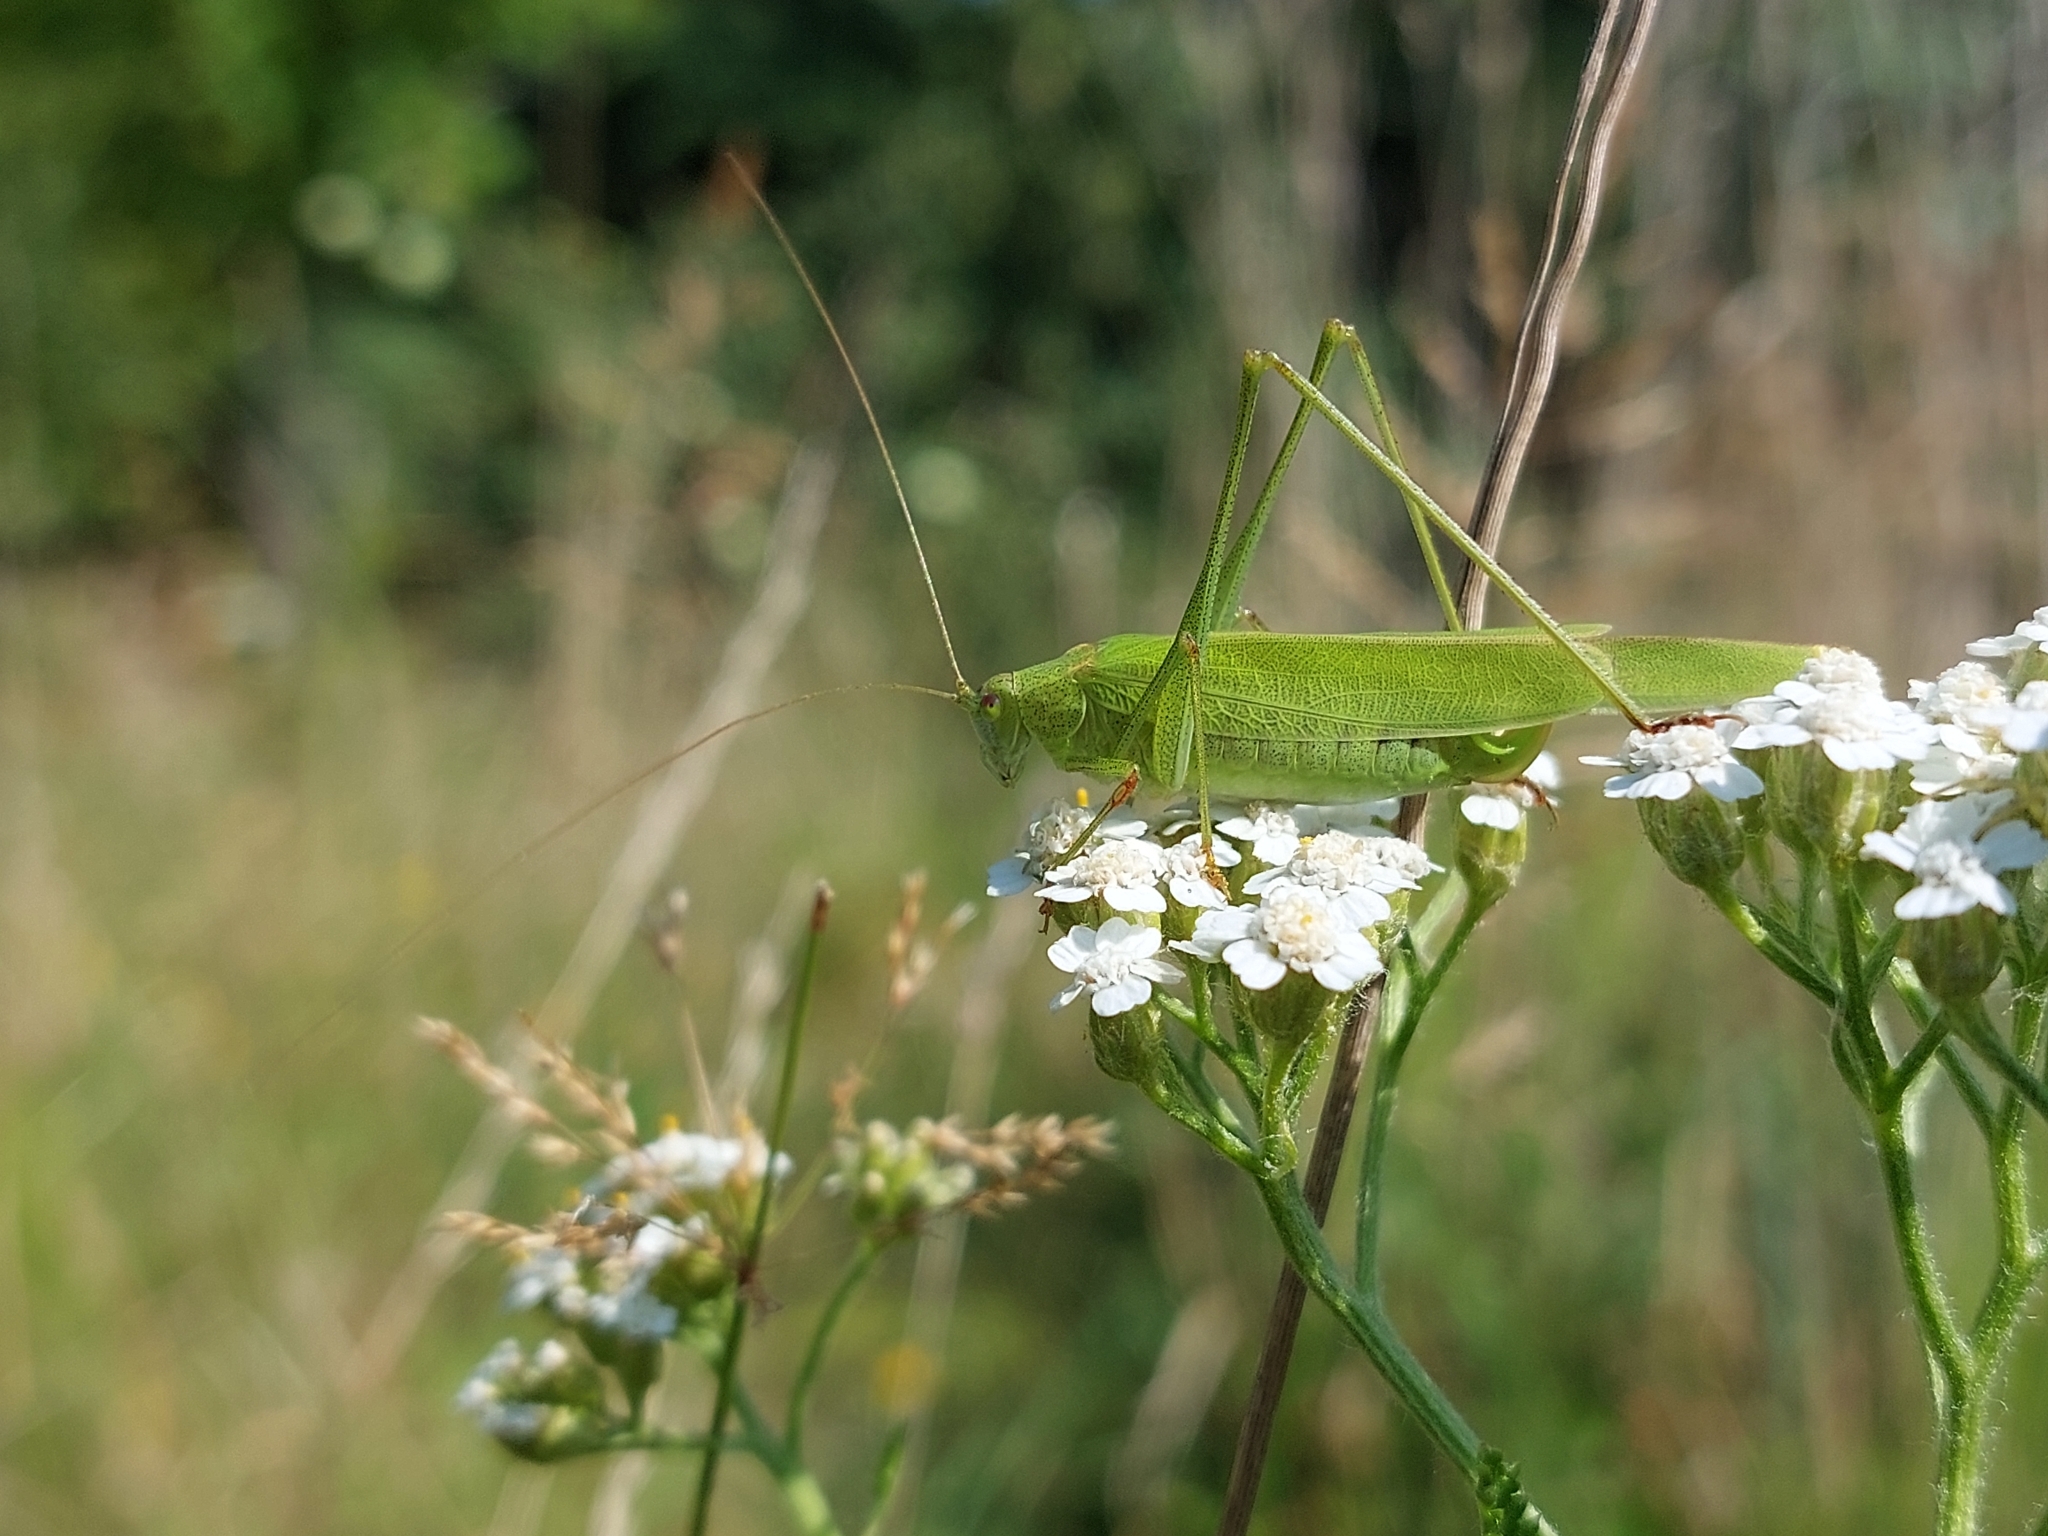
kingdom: Animalia
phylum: Arthropoda
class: Insecta
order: Orthoptera
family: Tettigoniidae
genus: Phaneroptera
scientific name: Phaneroptera falcata
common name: Sickle-bearing bush-cricket
